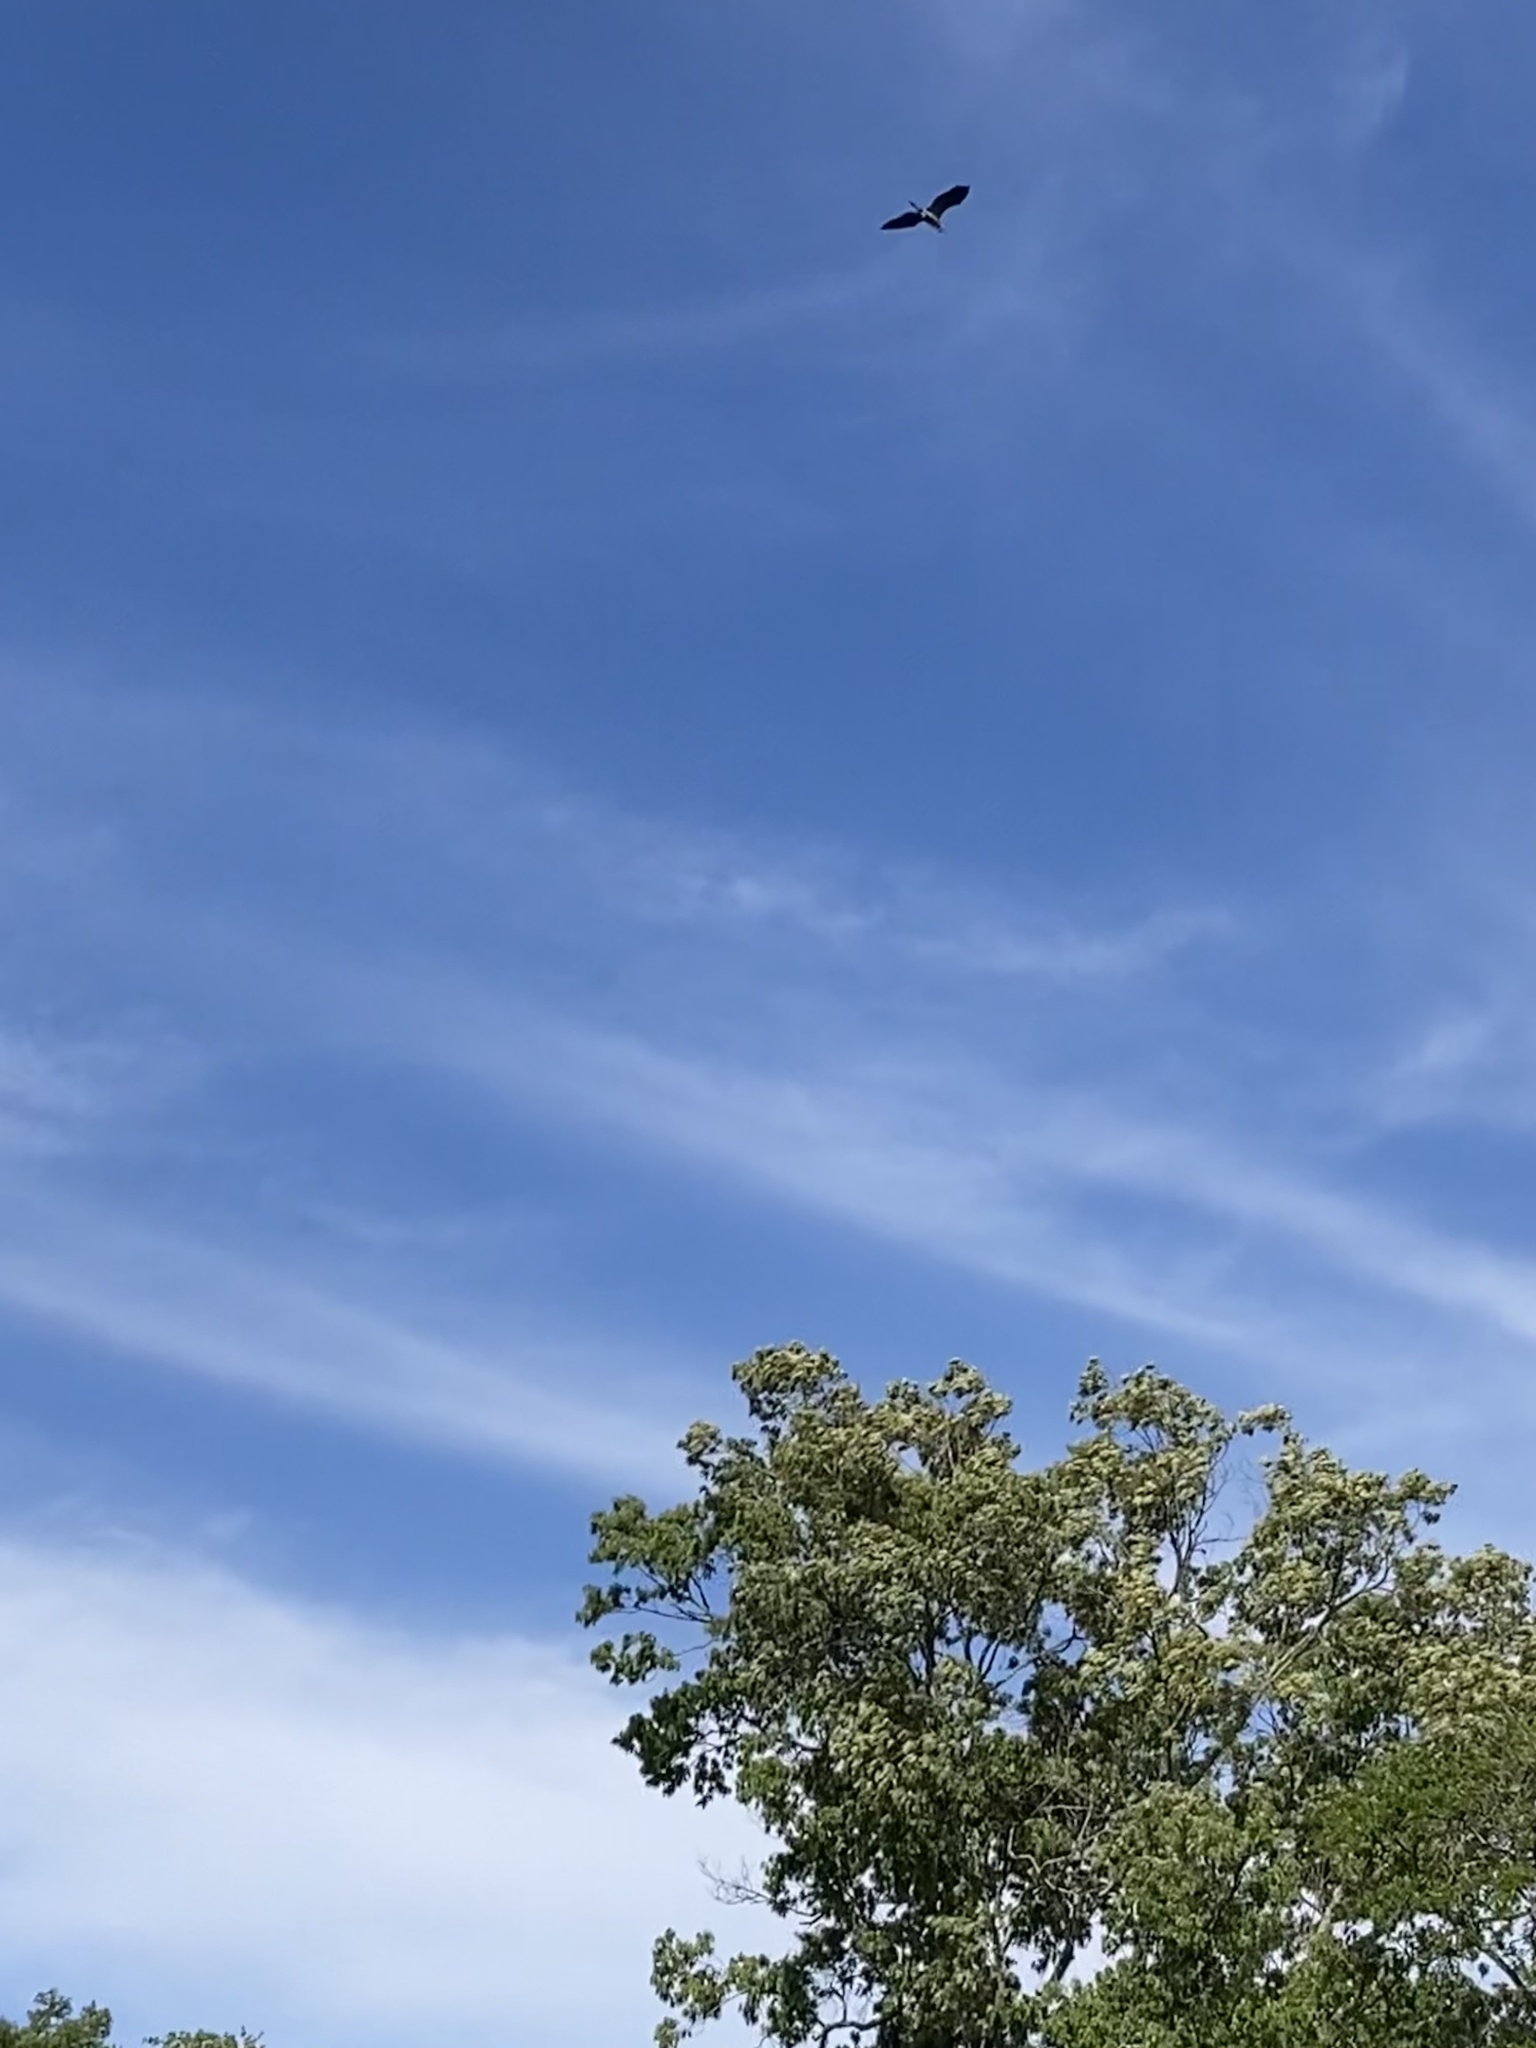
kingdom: Animalia
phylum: Chordata
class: Aves
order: Pelecaniformes
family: Ardeidae
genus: Ardea
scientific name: Ardea herodias
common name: Great blue heron
